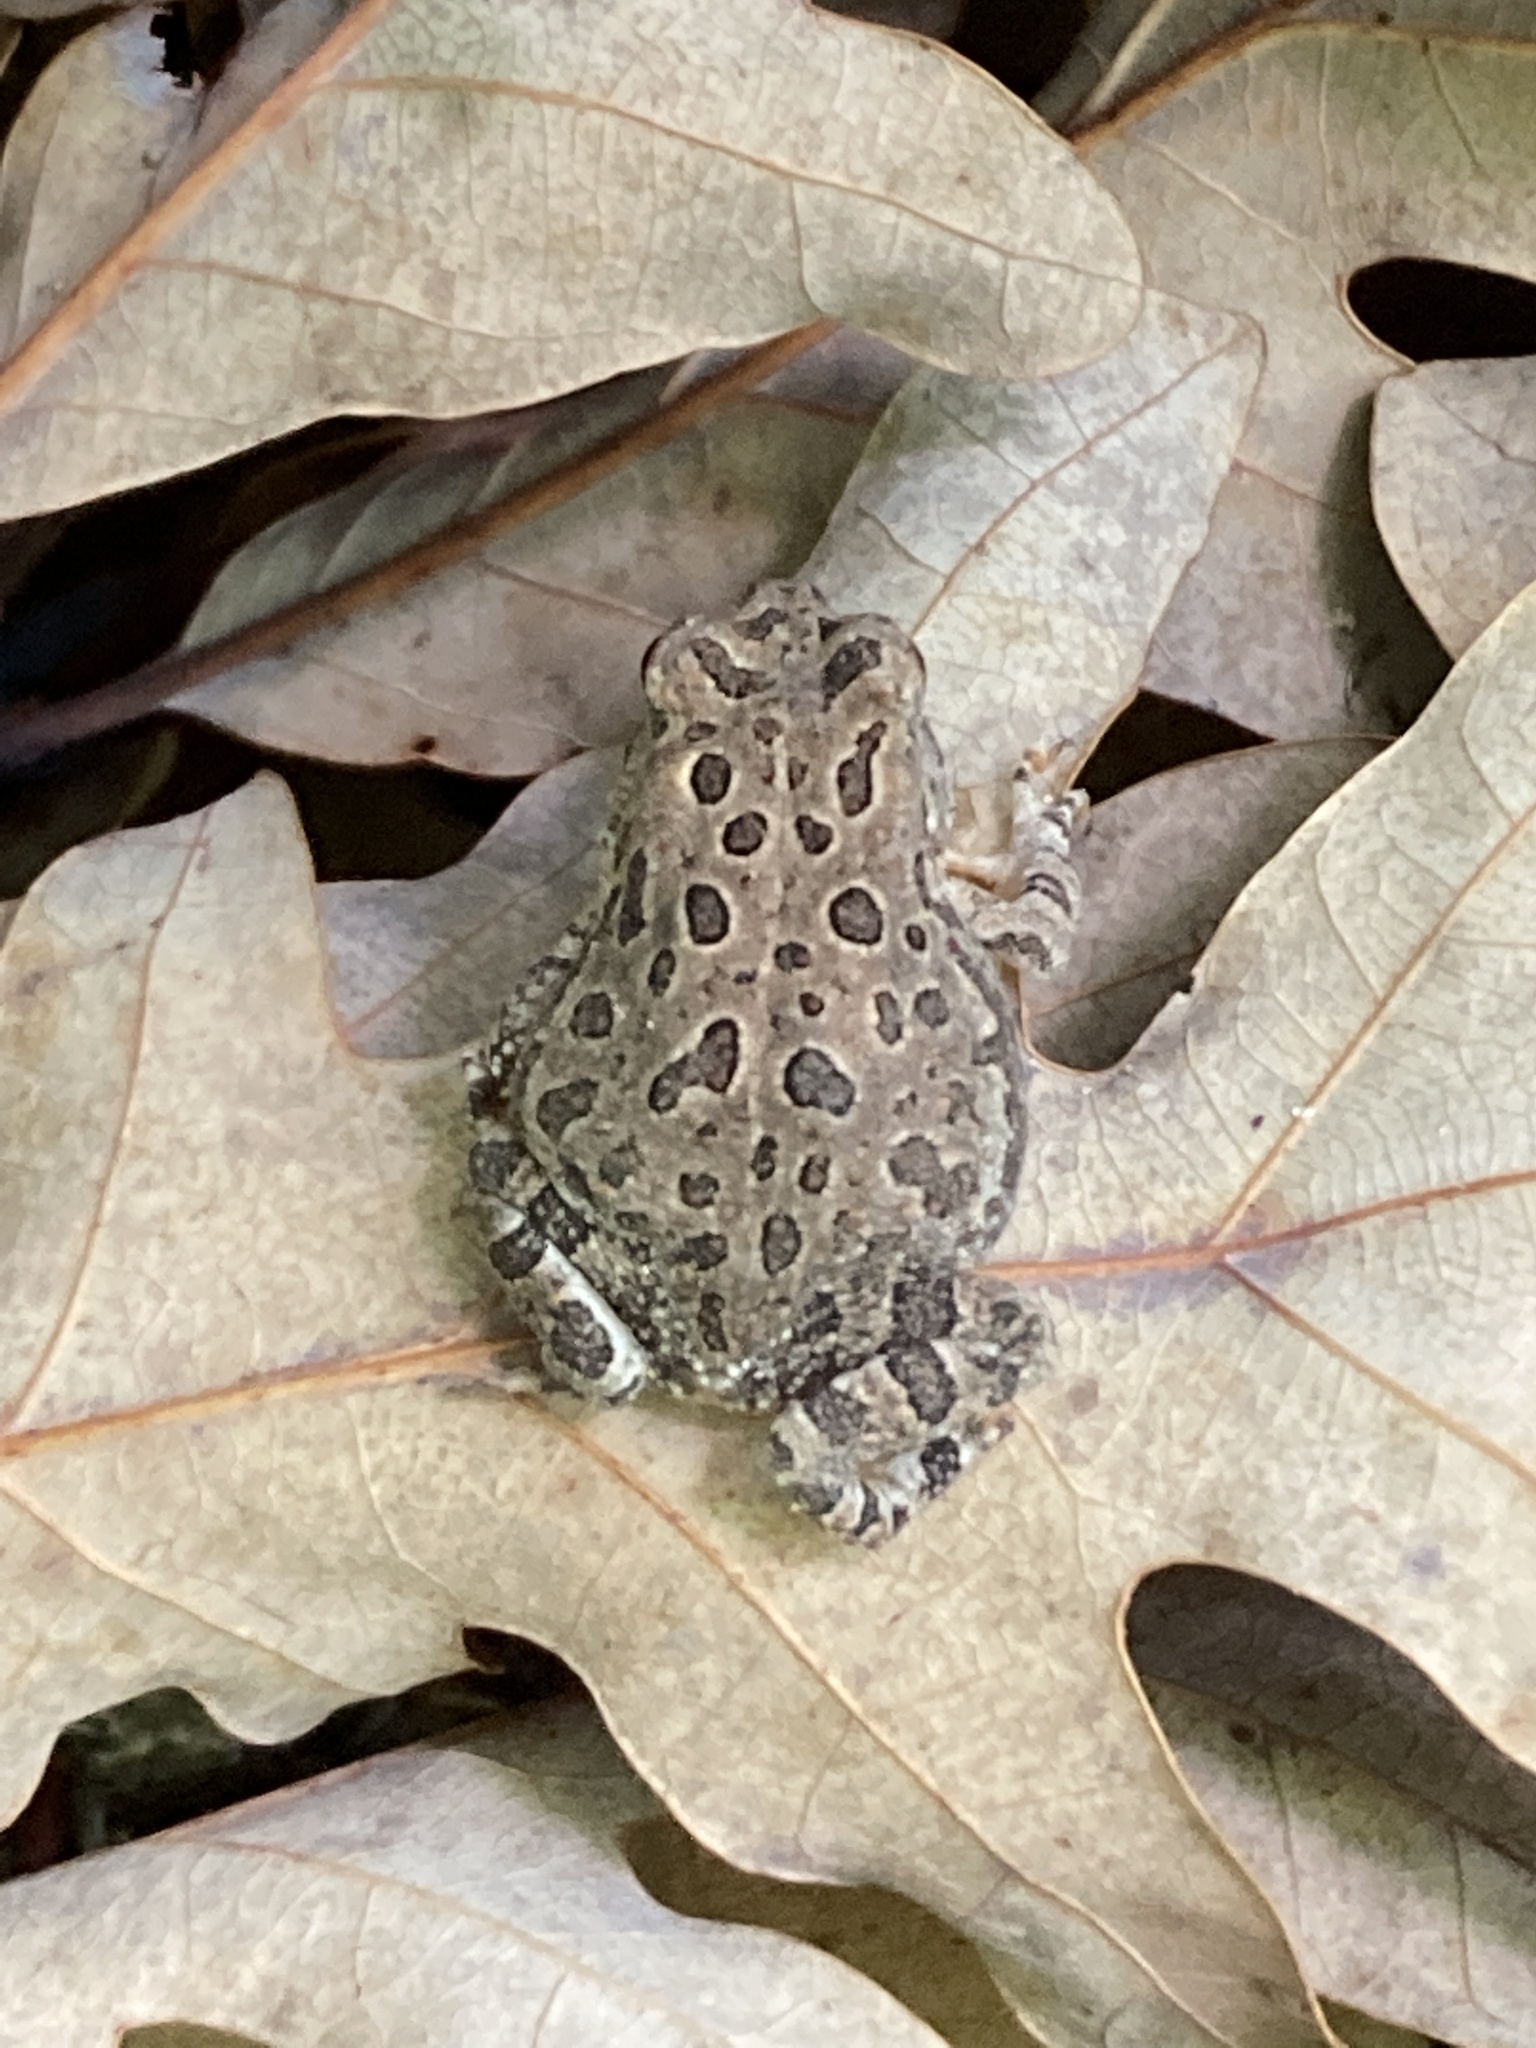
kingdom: Animalia
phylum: Chordata
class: Amphibia
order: Anura
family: Bufonidae
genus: Anaxyrus
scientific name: Anaxyrus fowleri
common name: Fowler's toad
